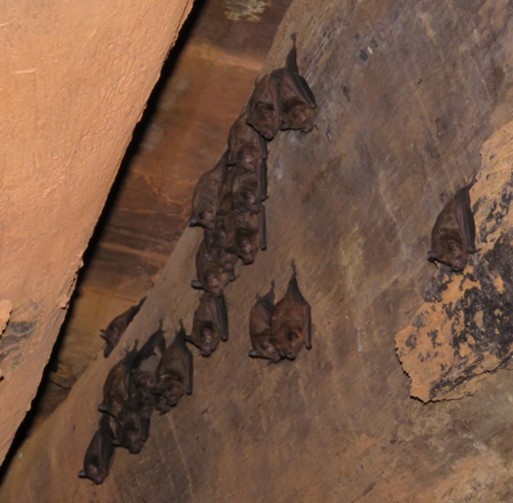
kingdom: Animalia
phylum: Chordata
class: Mammalia
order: Chiroptera
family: Phyllostomidae
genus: Carollia
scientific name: Carollia perspicillata
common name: Seba's short-tailed bat
